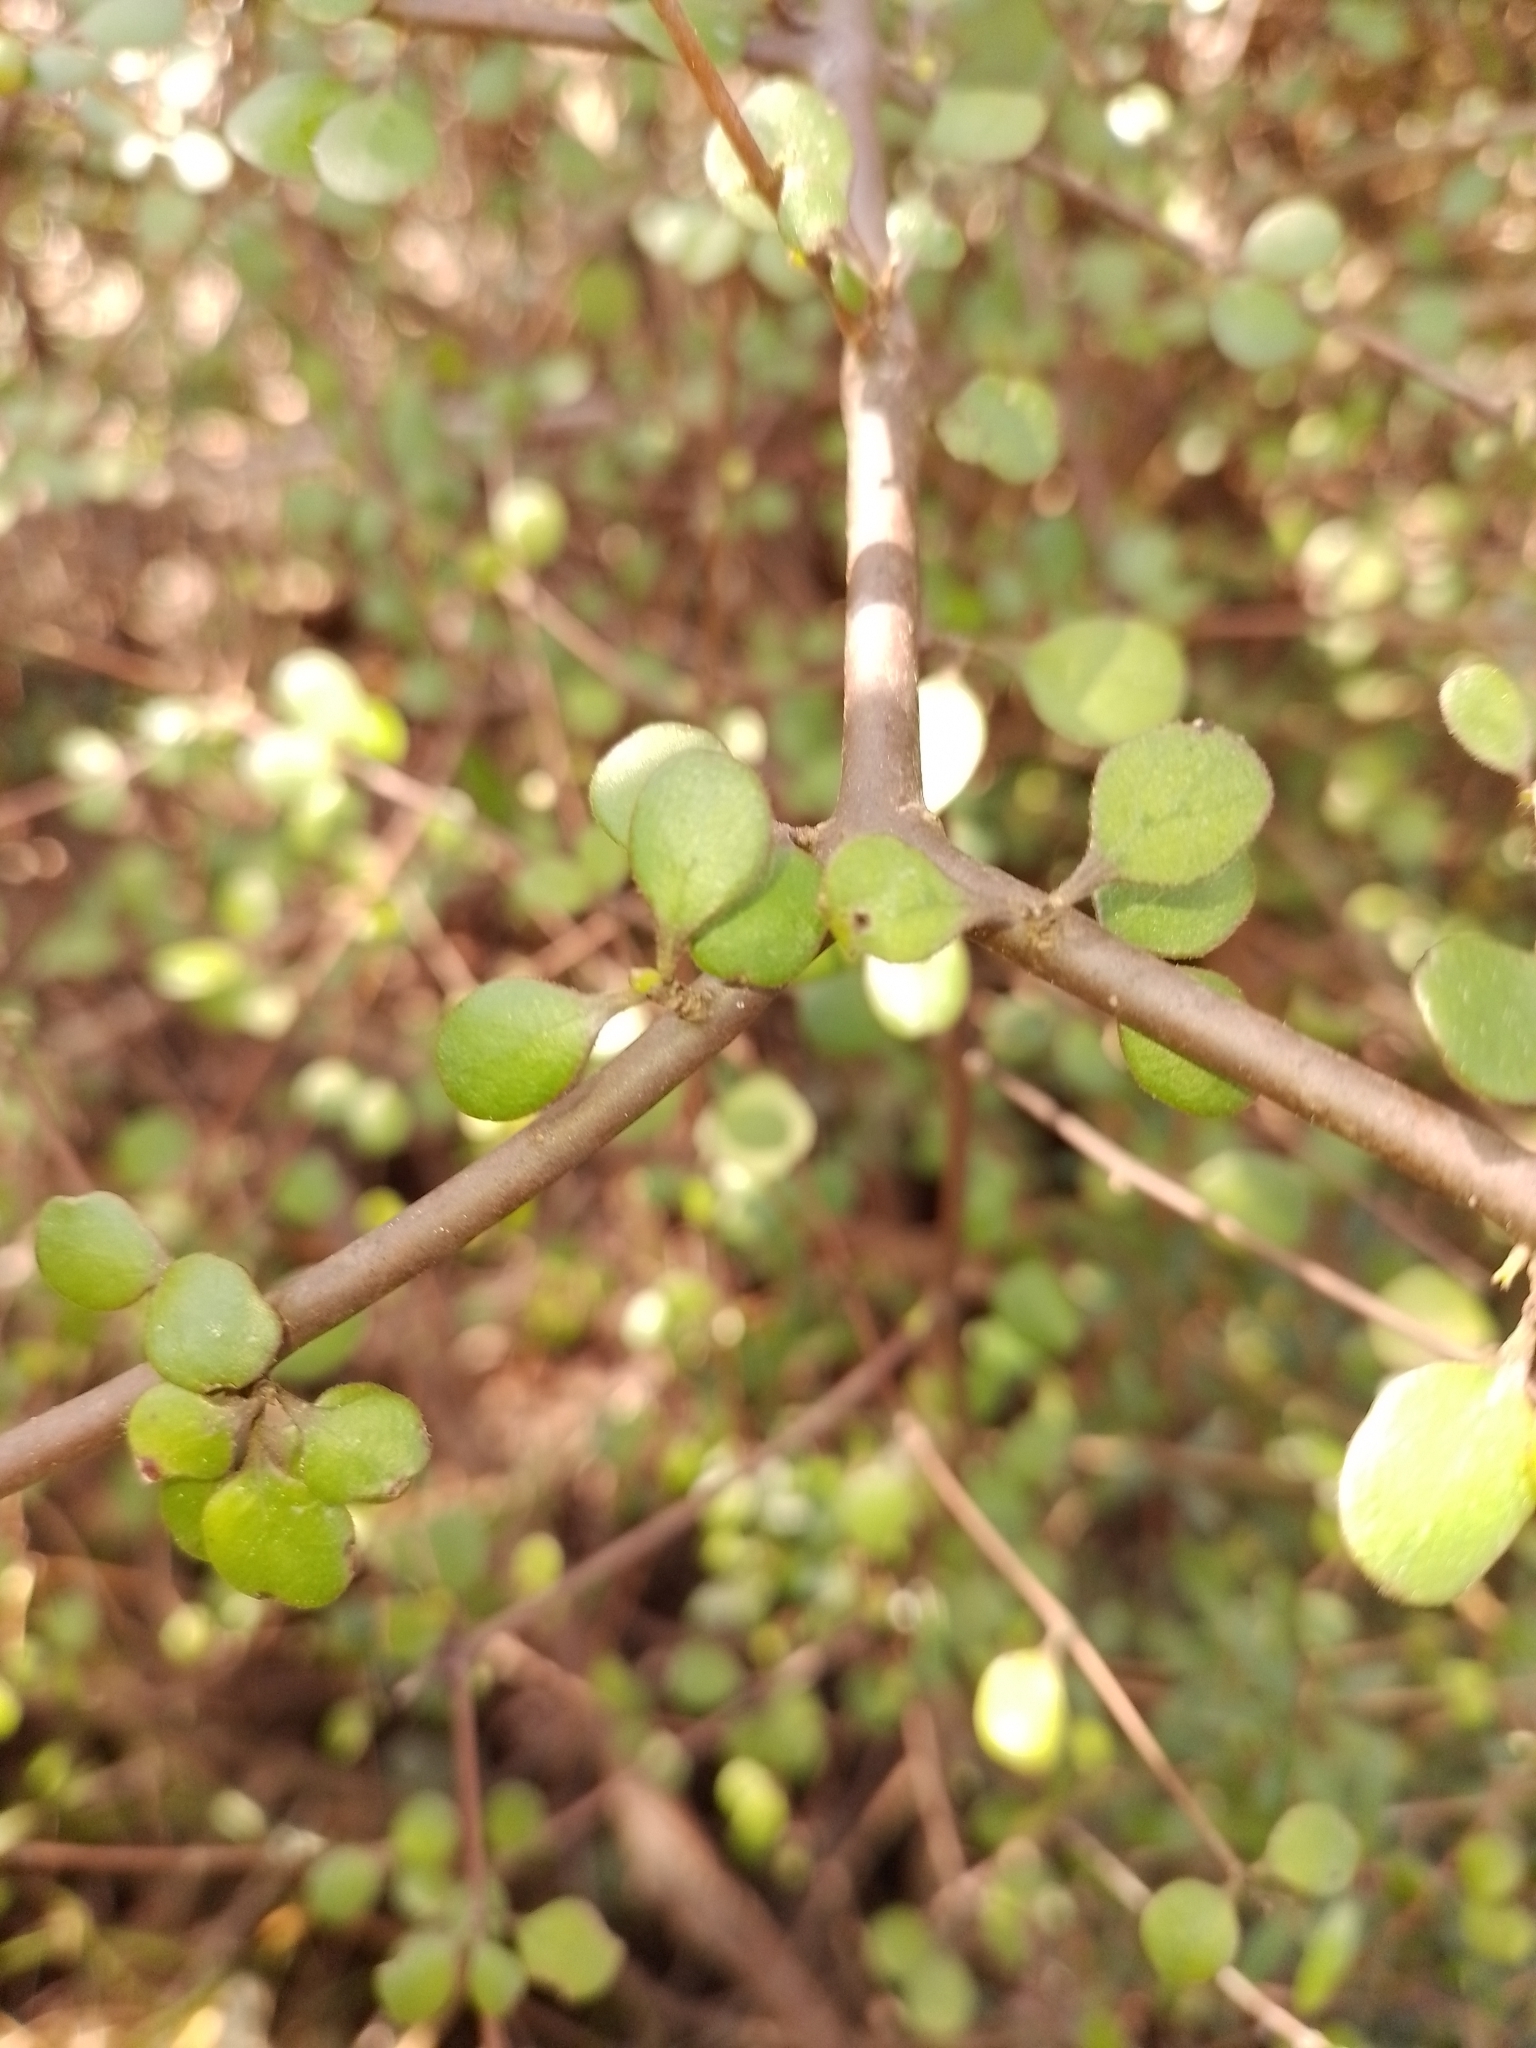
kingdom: Plantae
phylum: Tracheophyta
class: Magnoliopsida
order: Gentianales
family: Rubiaceae
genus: Coprosma
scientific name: Coprosma crassifolia
